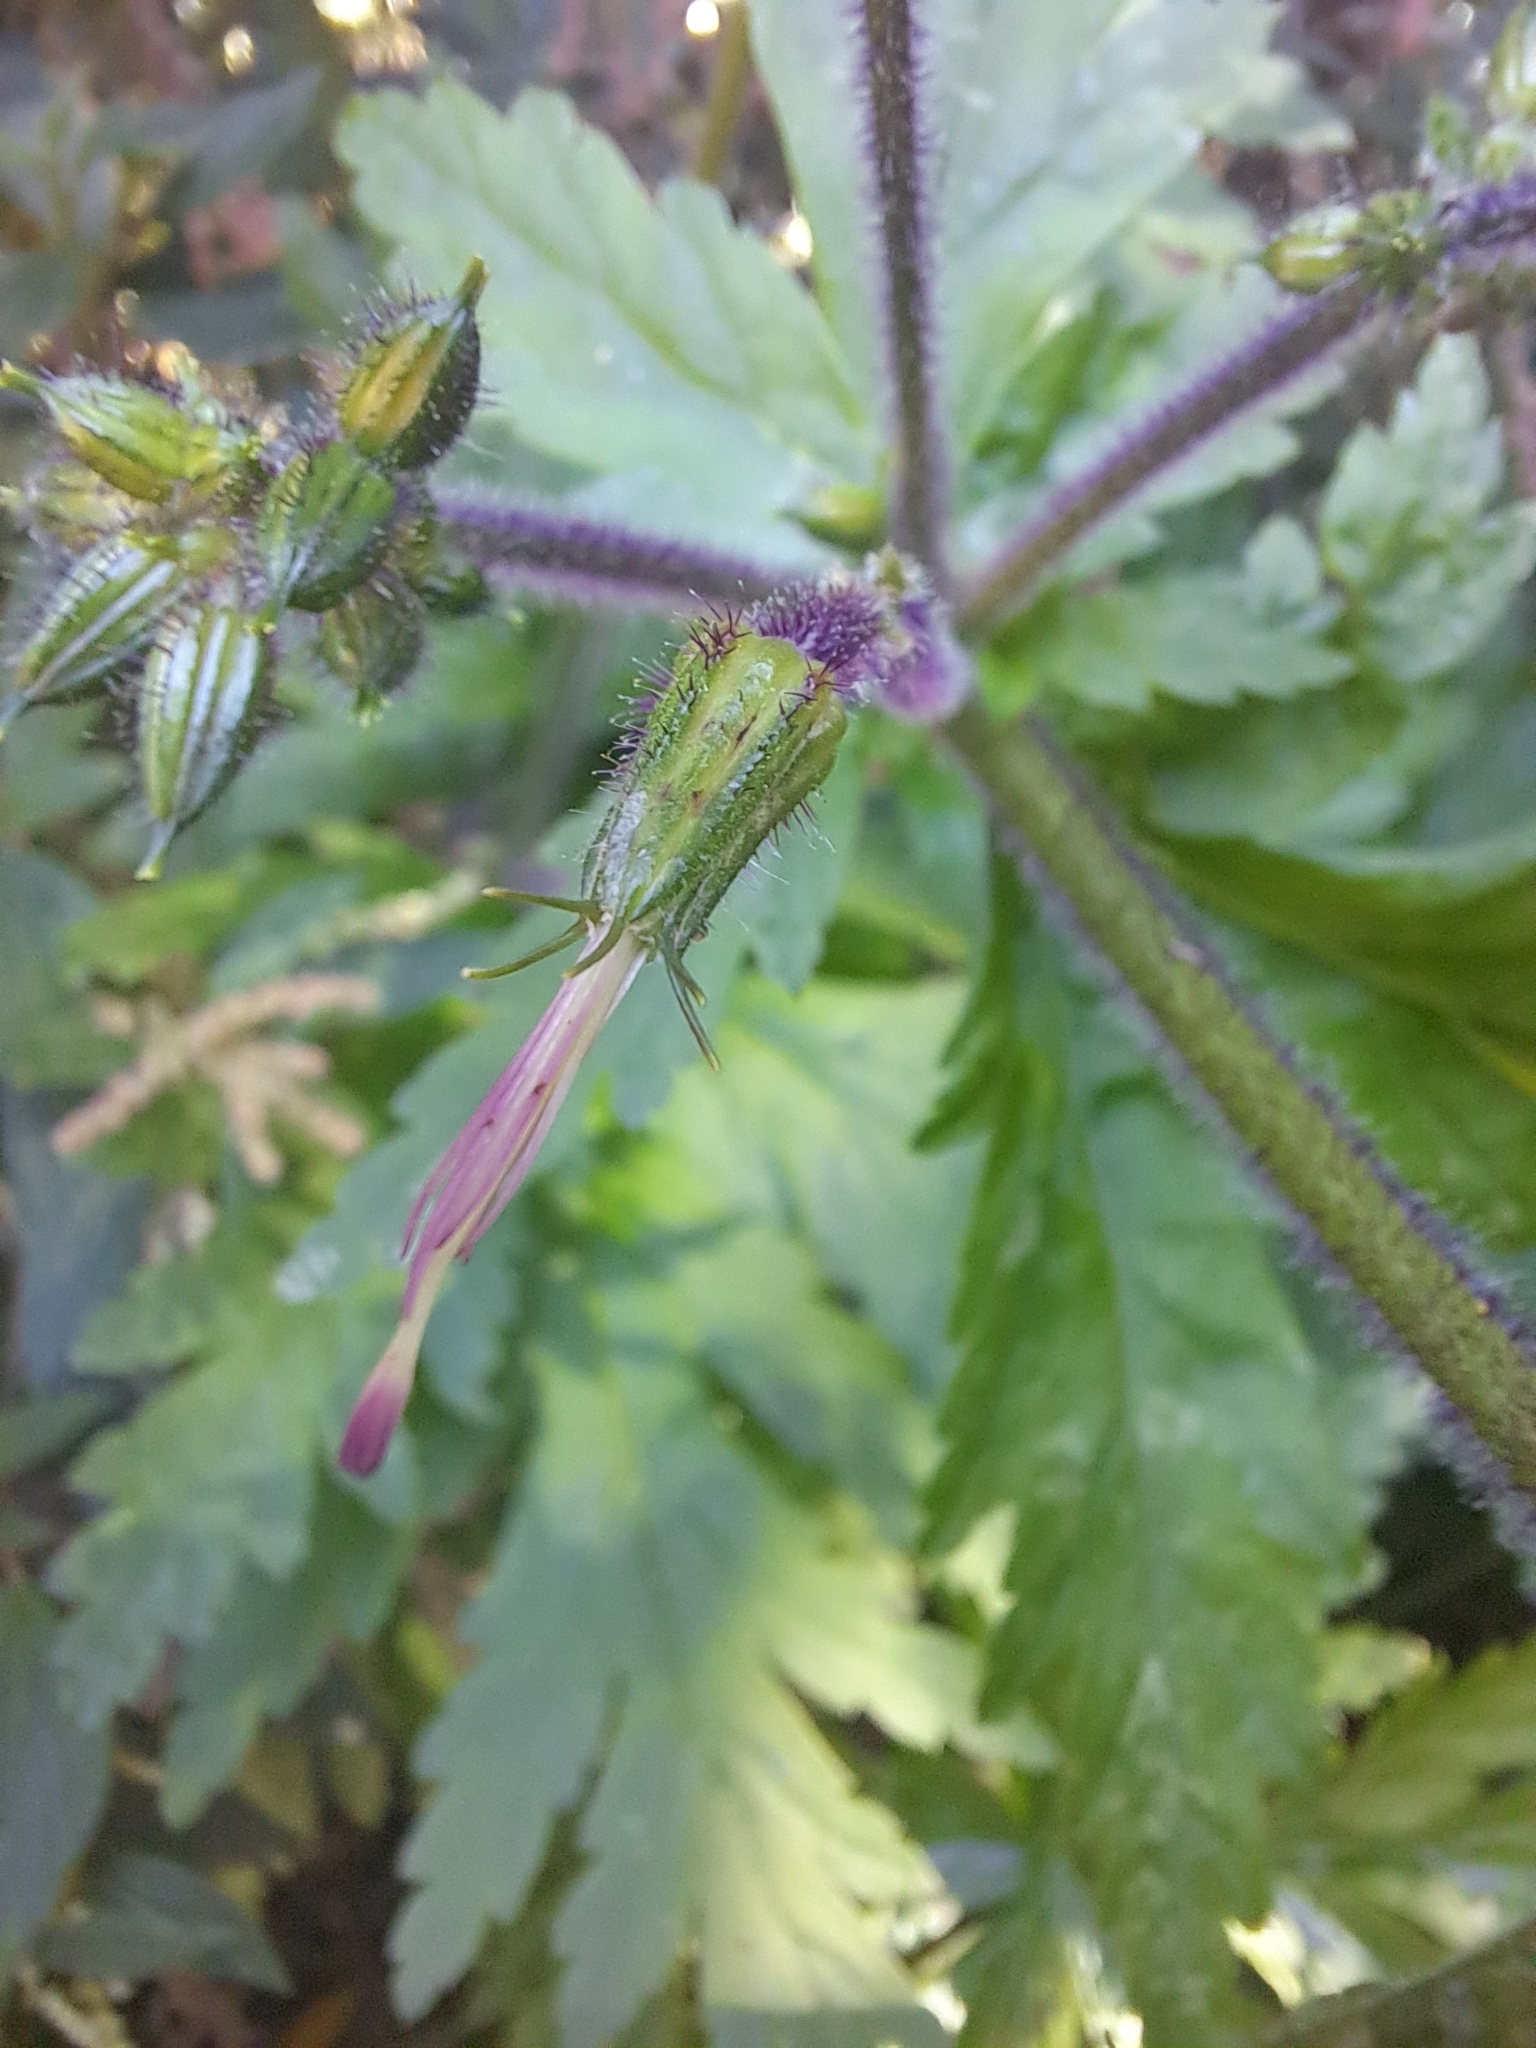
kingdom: Plantae
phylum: Tracheophyta
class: Magnoliopsida
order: Geraniales
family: Geraniaceae
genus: Geranium
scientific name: Geranium reuteri
